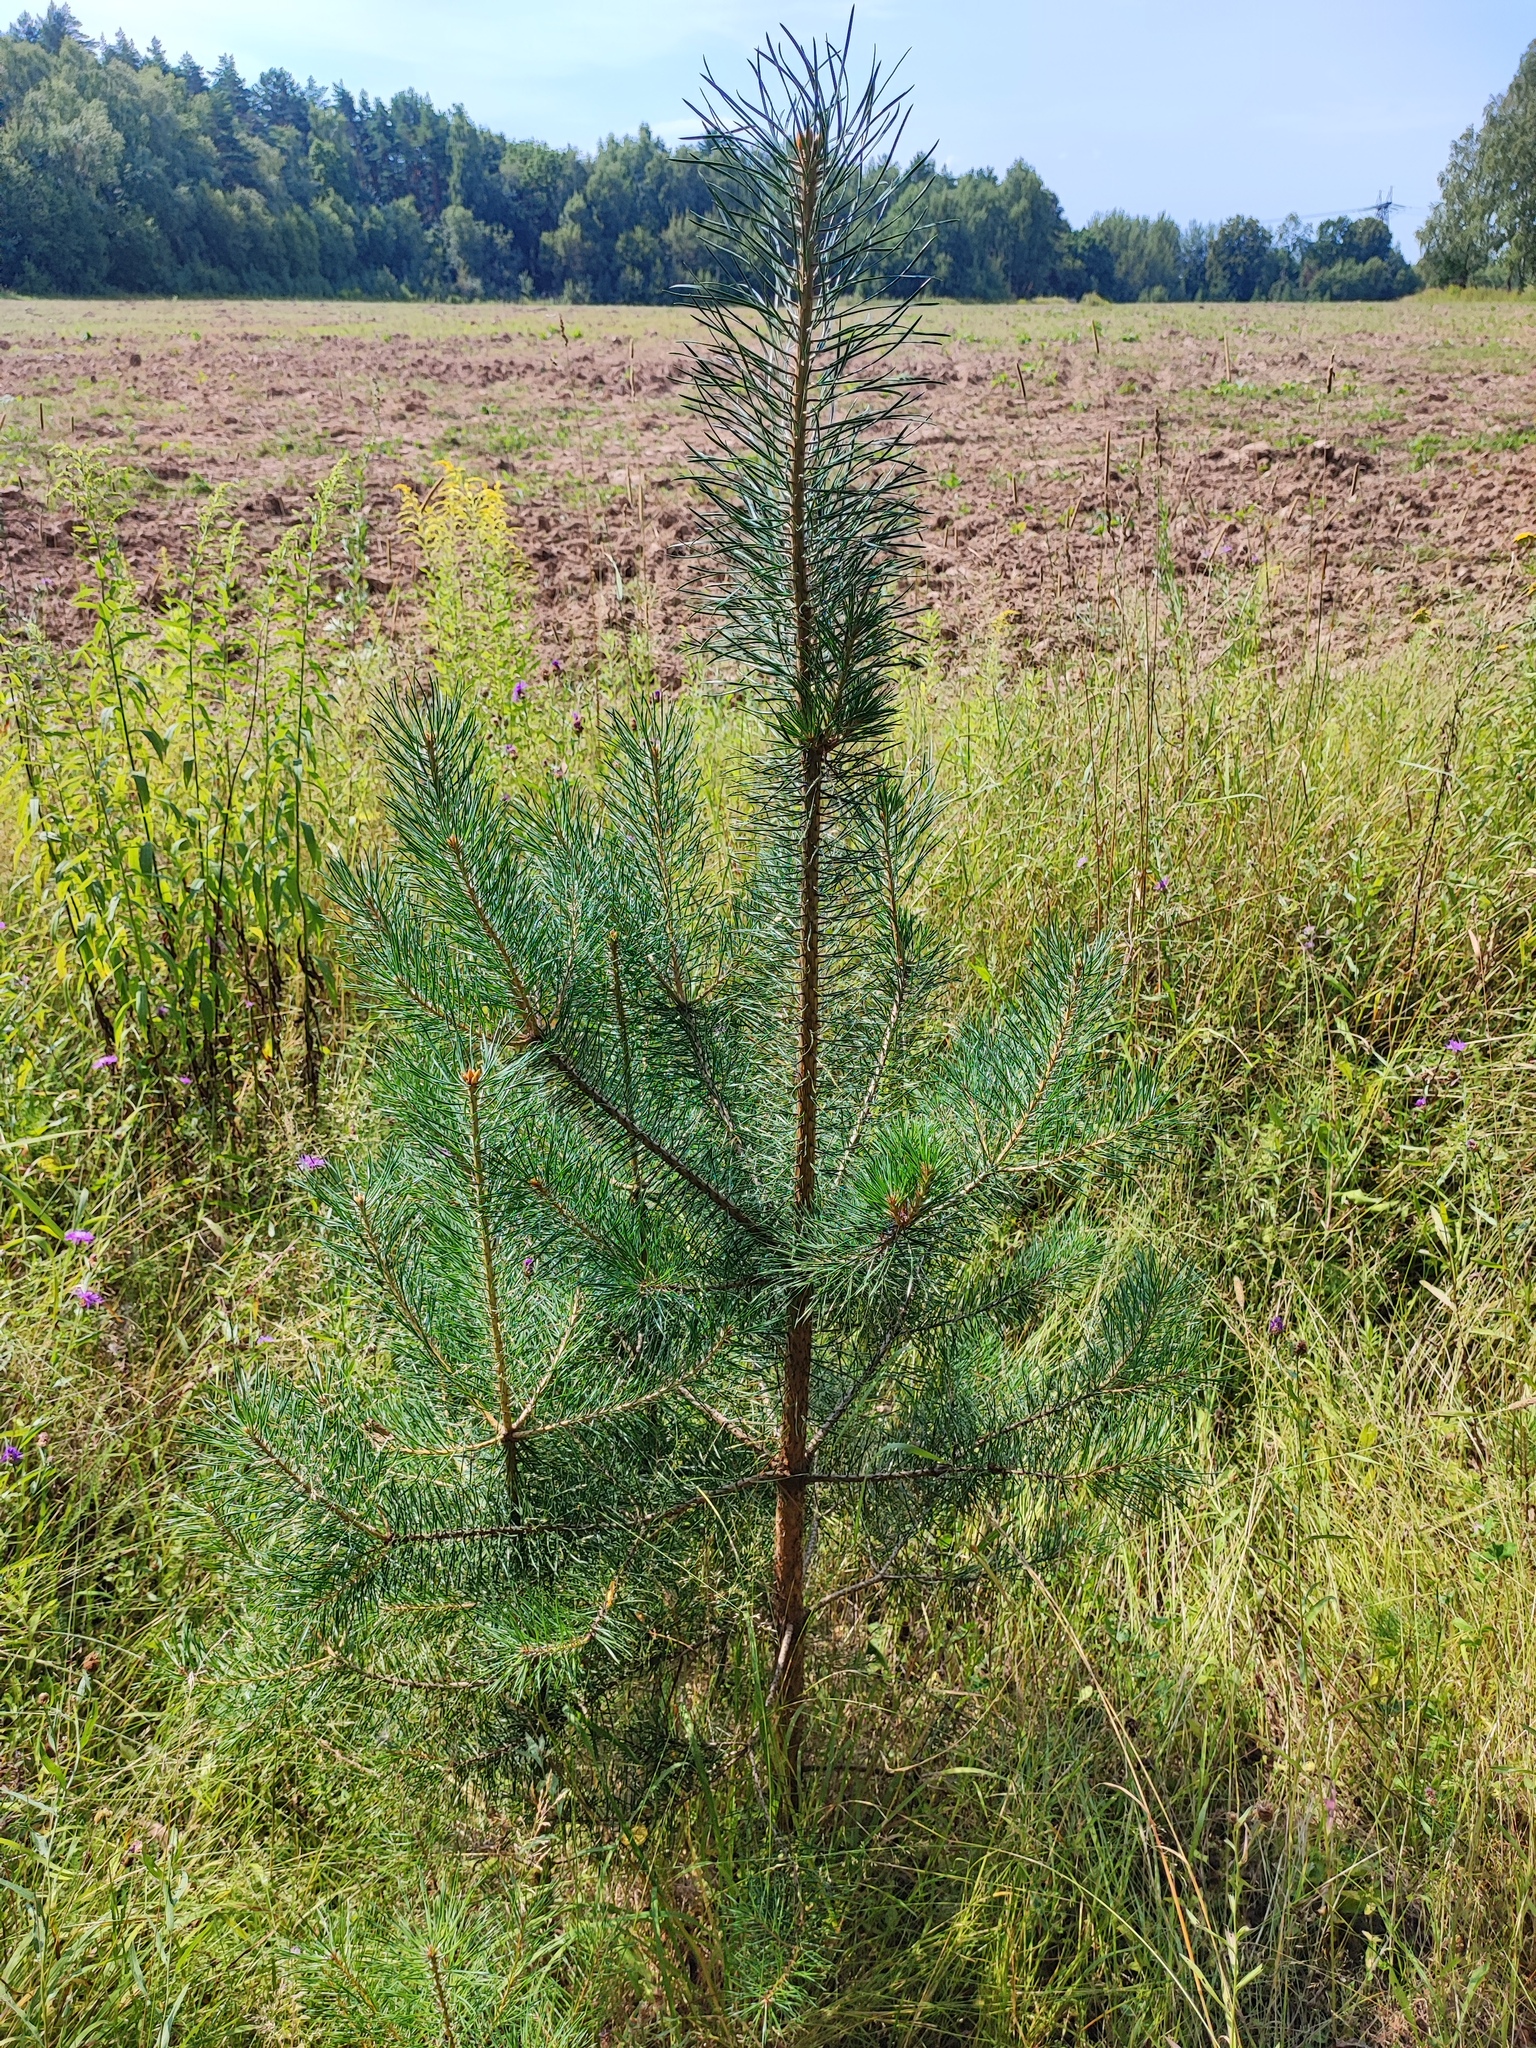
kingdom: Plantae
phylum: Tracheophyta
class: Pinopsida
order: Pinales
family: Pinaceae
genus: Pinus
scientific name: Pinus sylvestris
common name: Scots pine
